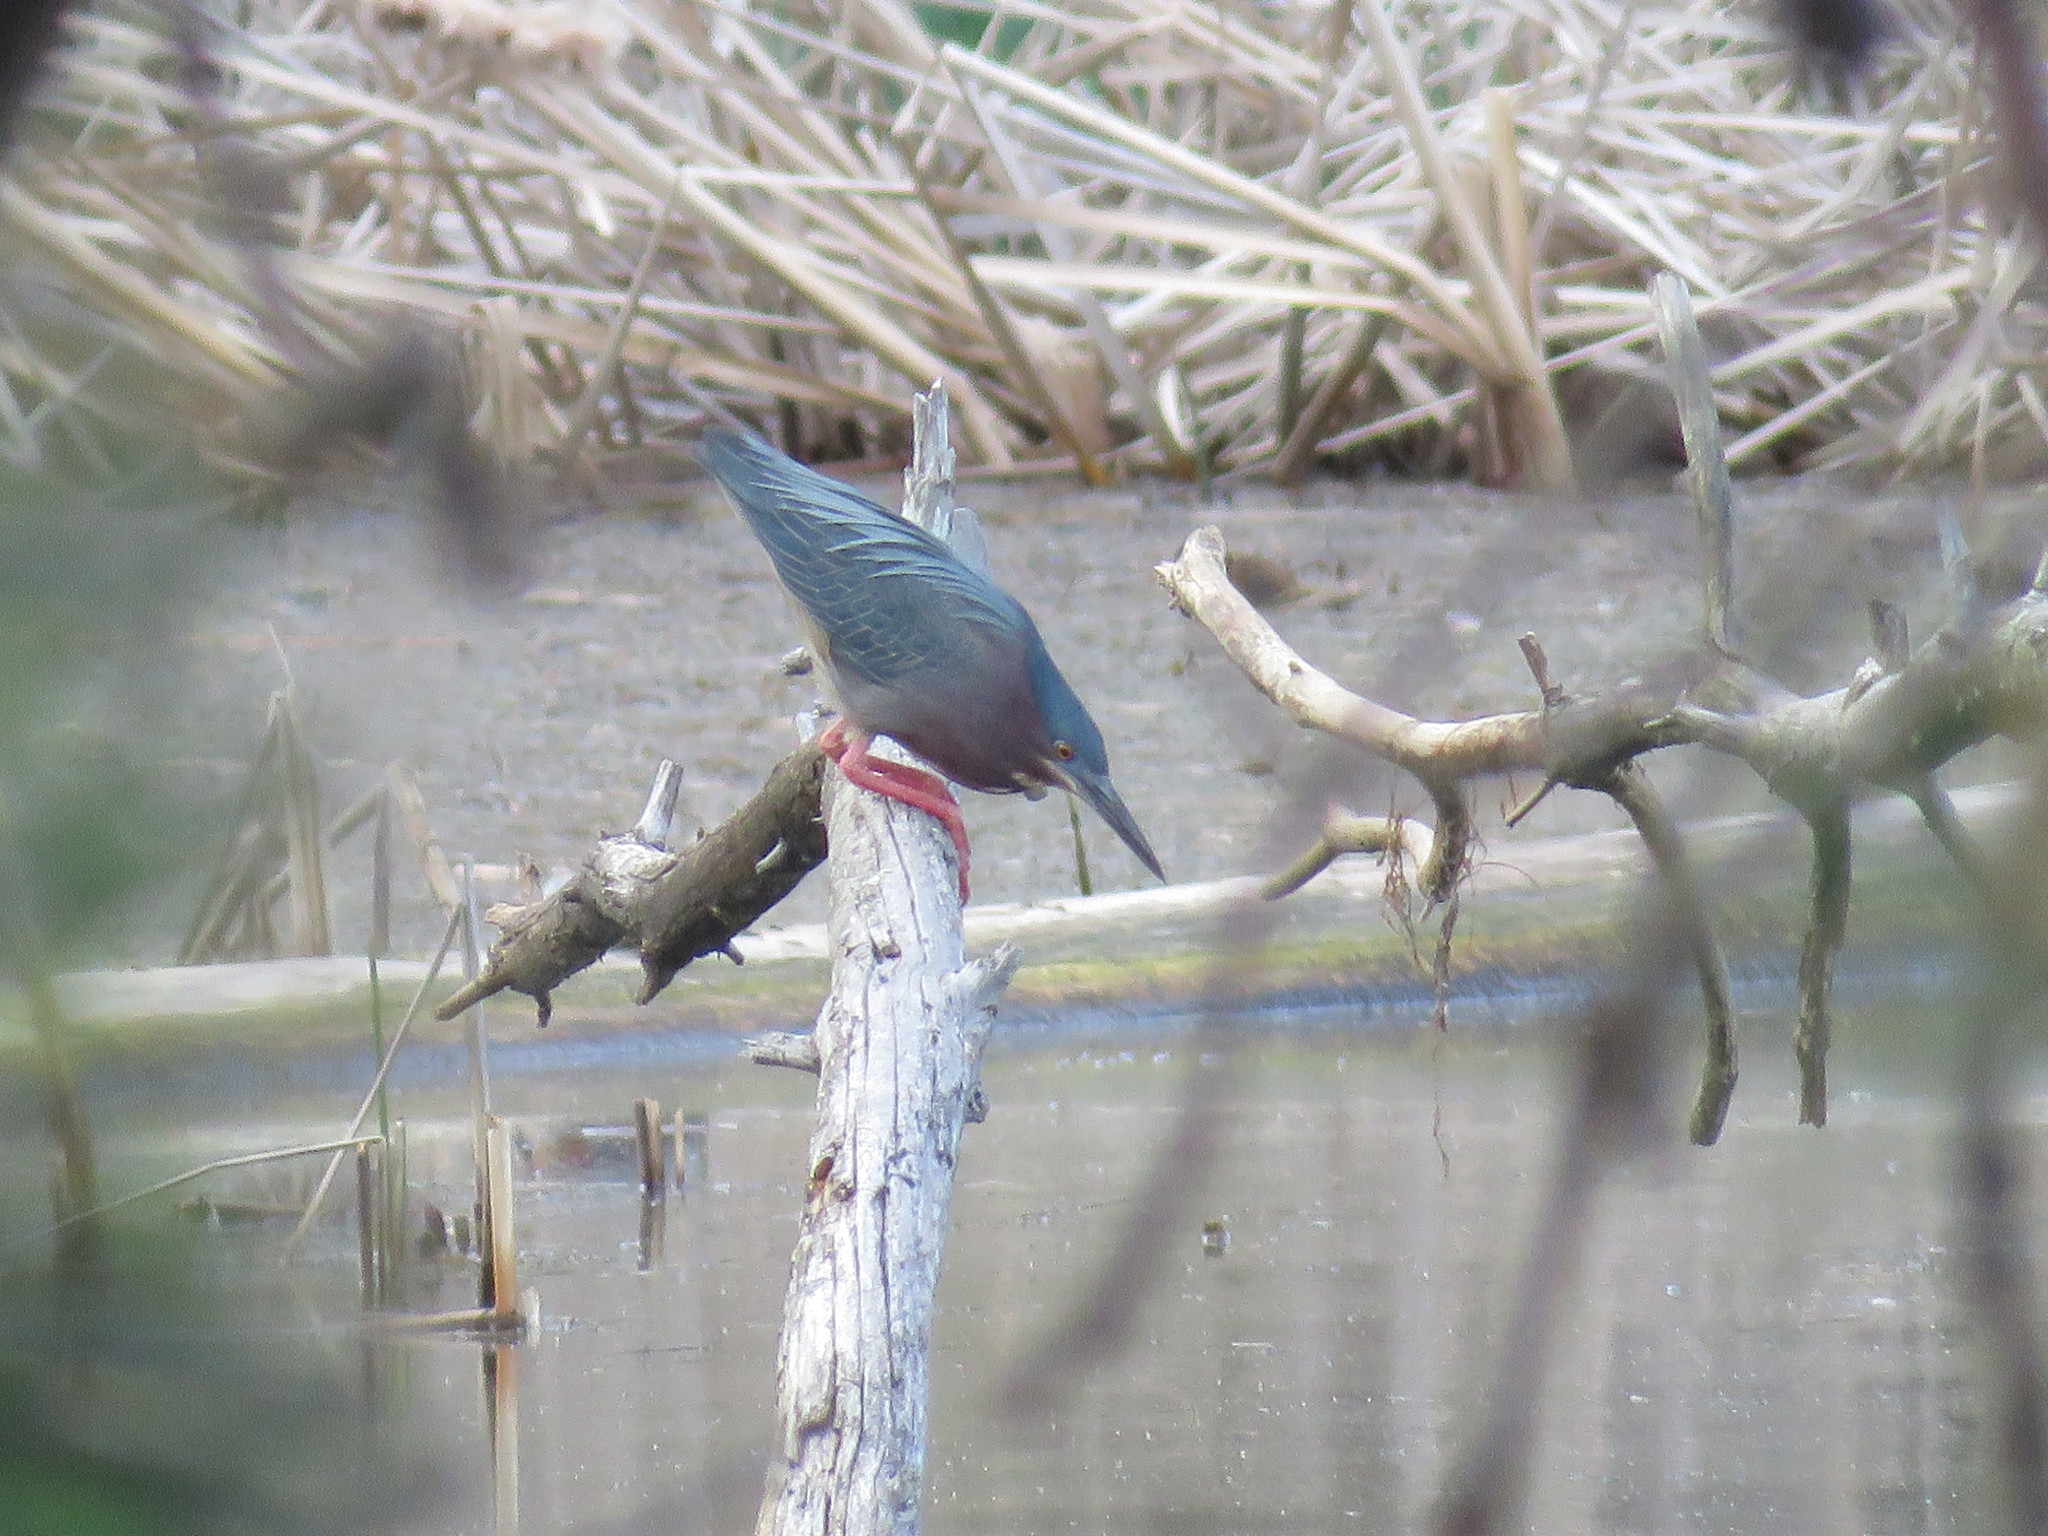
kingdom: Animalia
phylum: Chordata
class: Aves
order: Pelecaniformes
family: Ardeidae
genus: Butorides
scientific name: Butorides virescens
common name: Green heron
